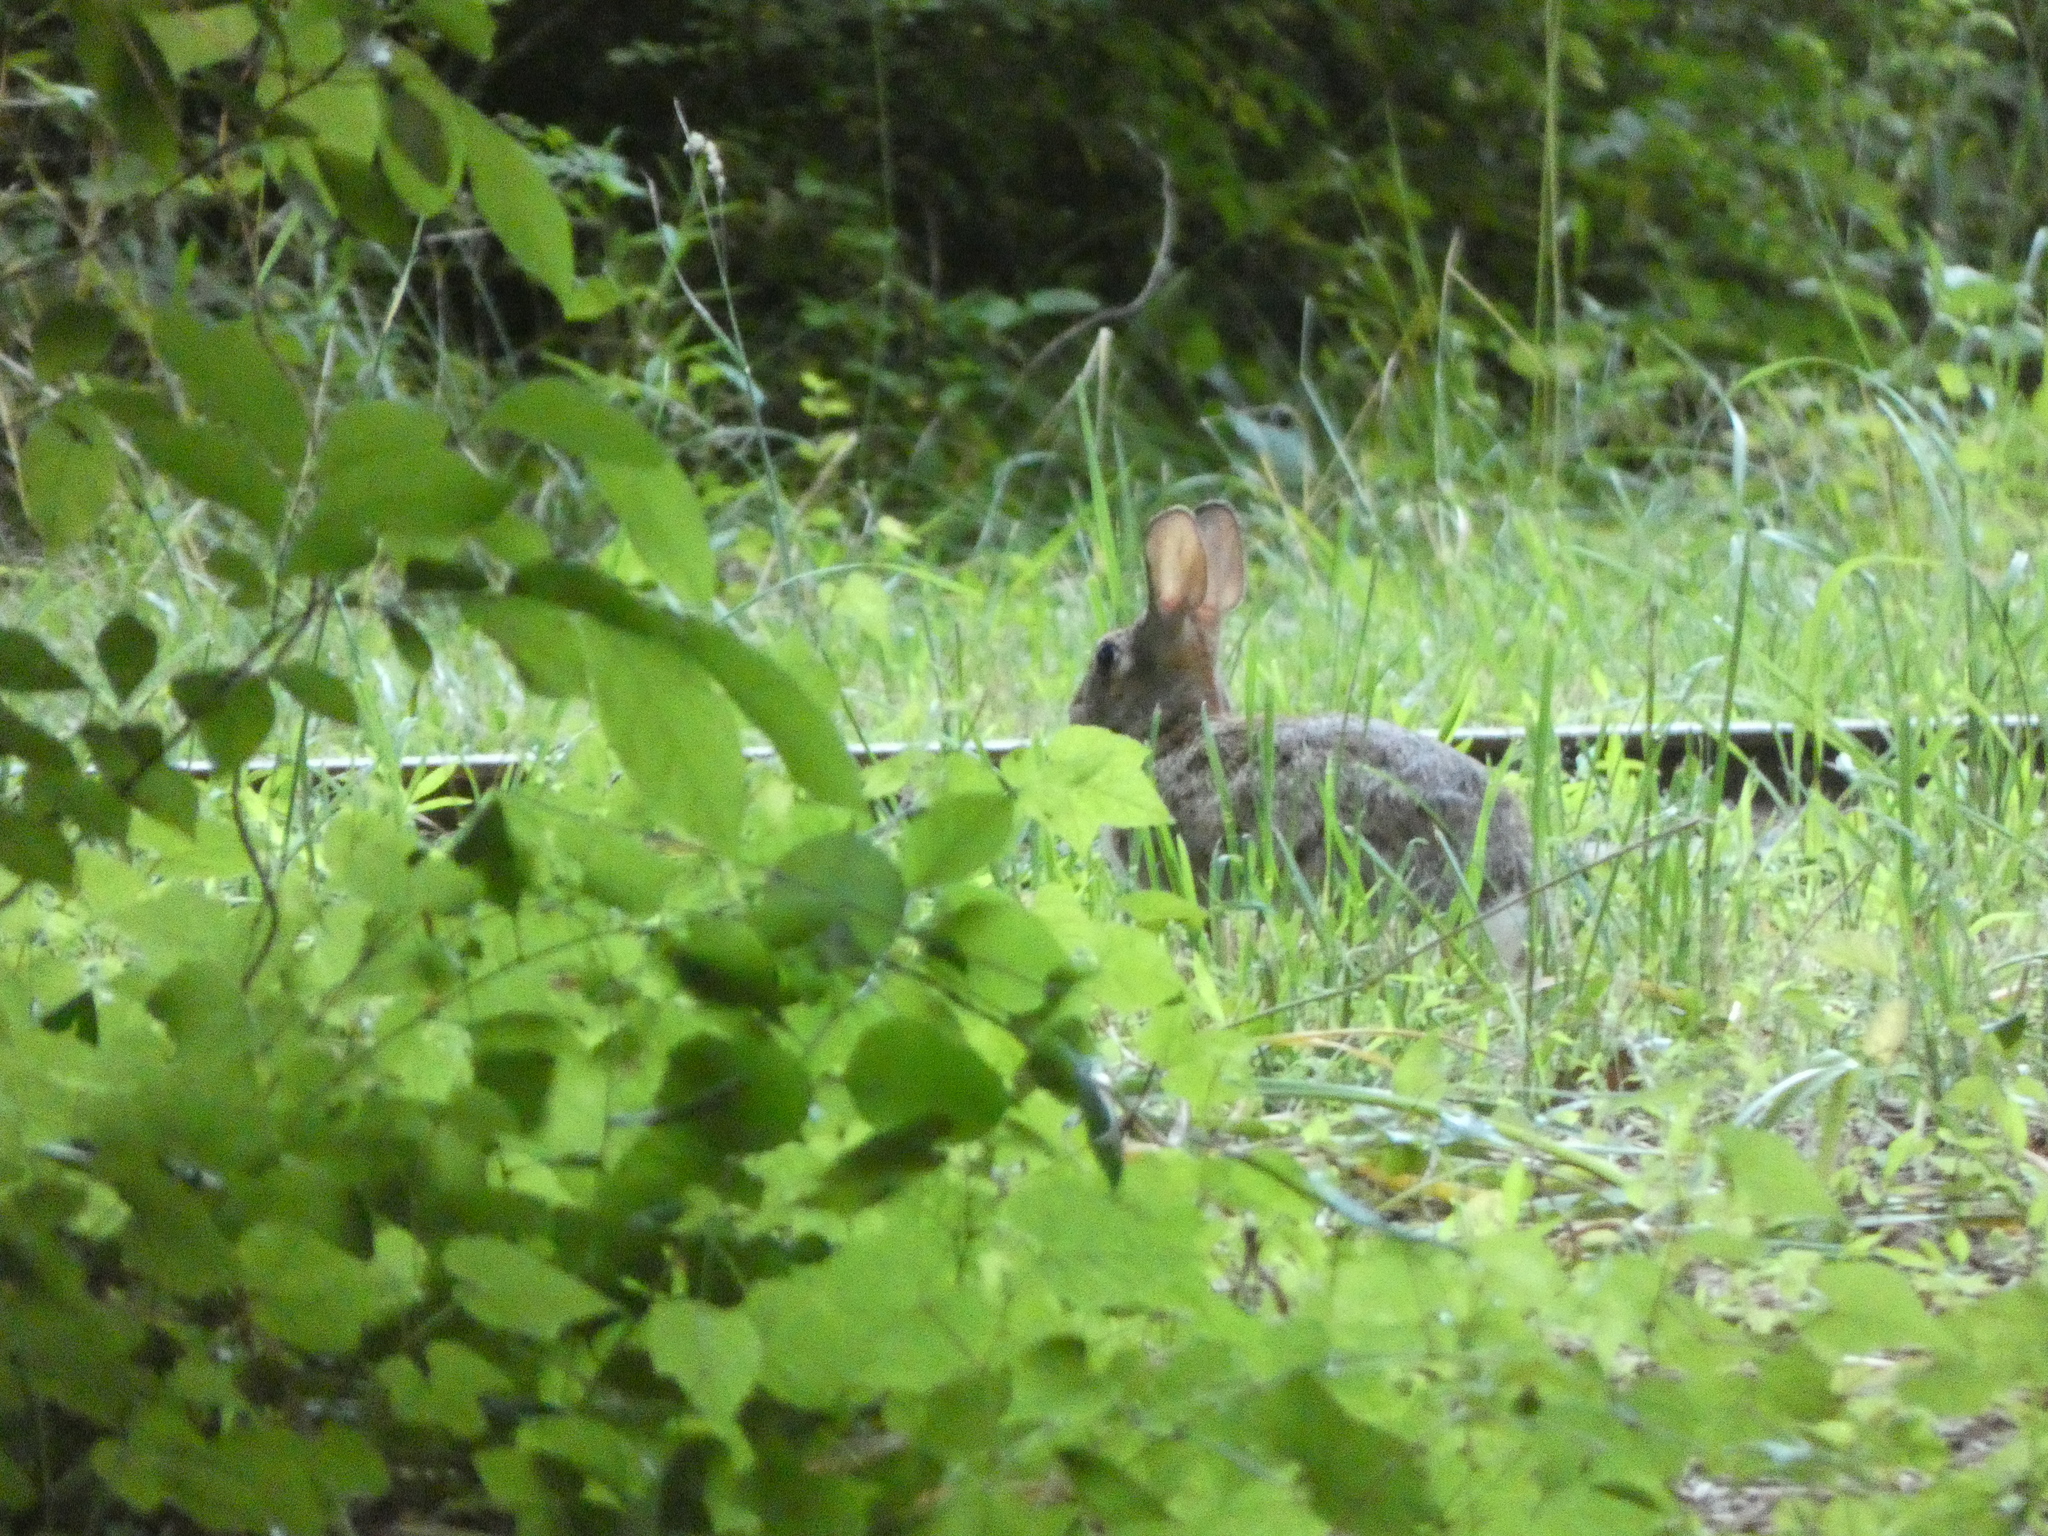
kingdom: Animalia
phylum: Chordata
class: Mammalia
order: Lagomorpha
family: Leporidae
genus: Sylvilagus
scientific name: Sylvilagus floridanus
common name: Eastern cottontail
